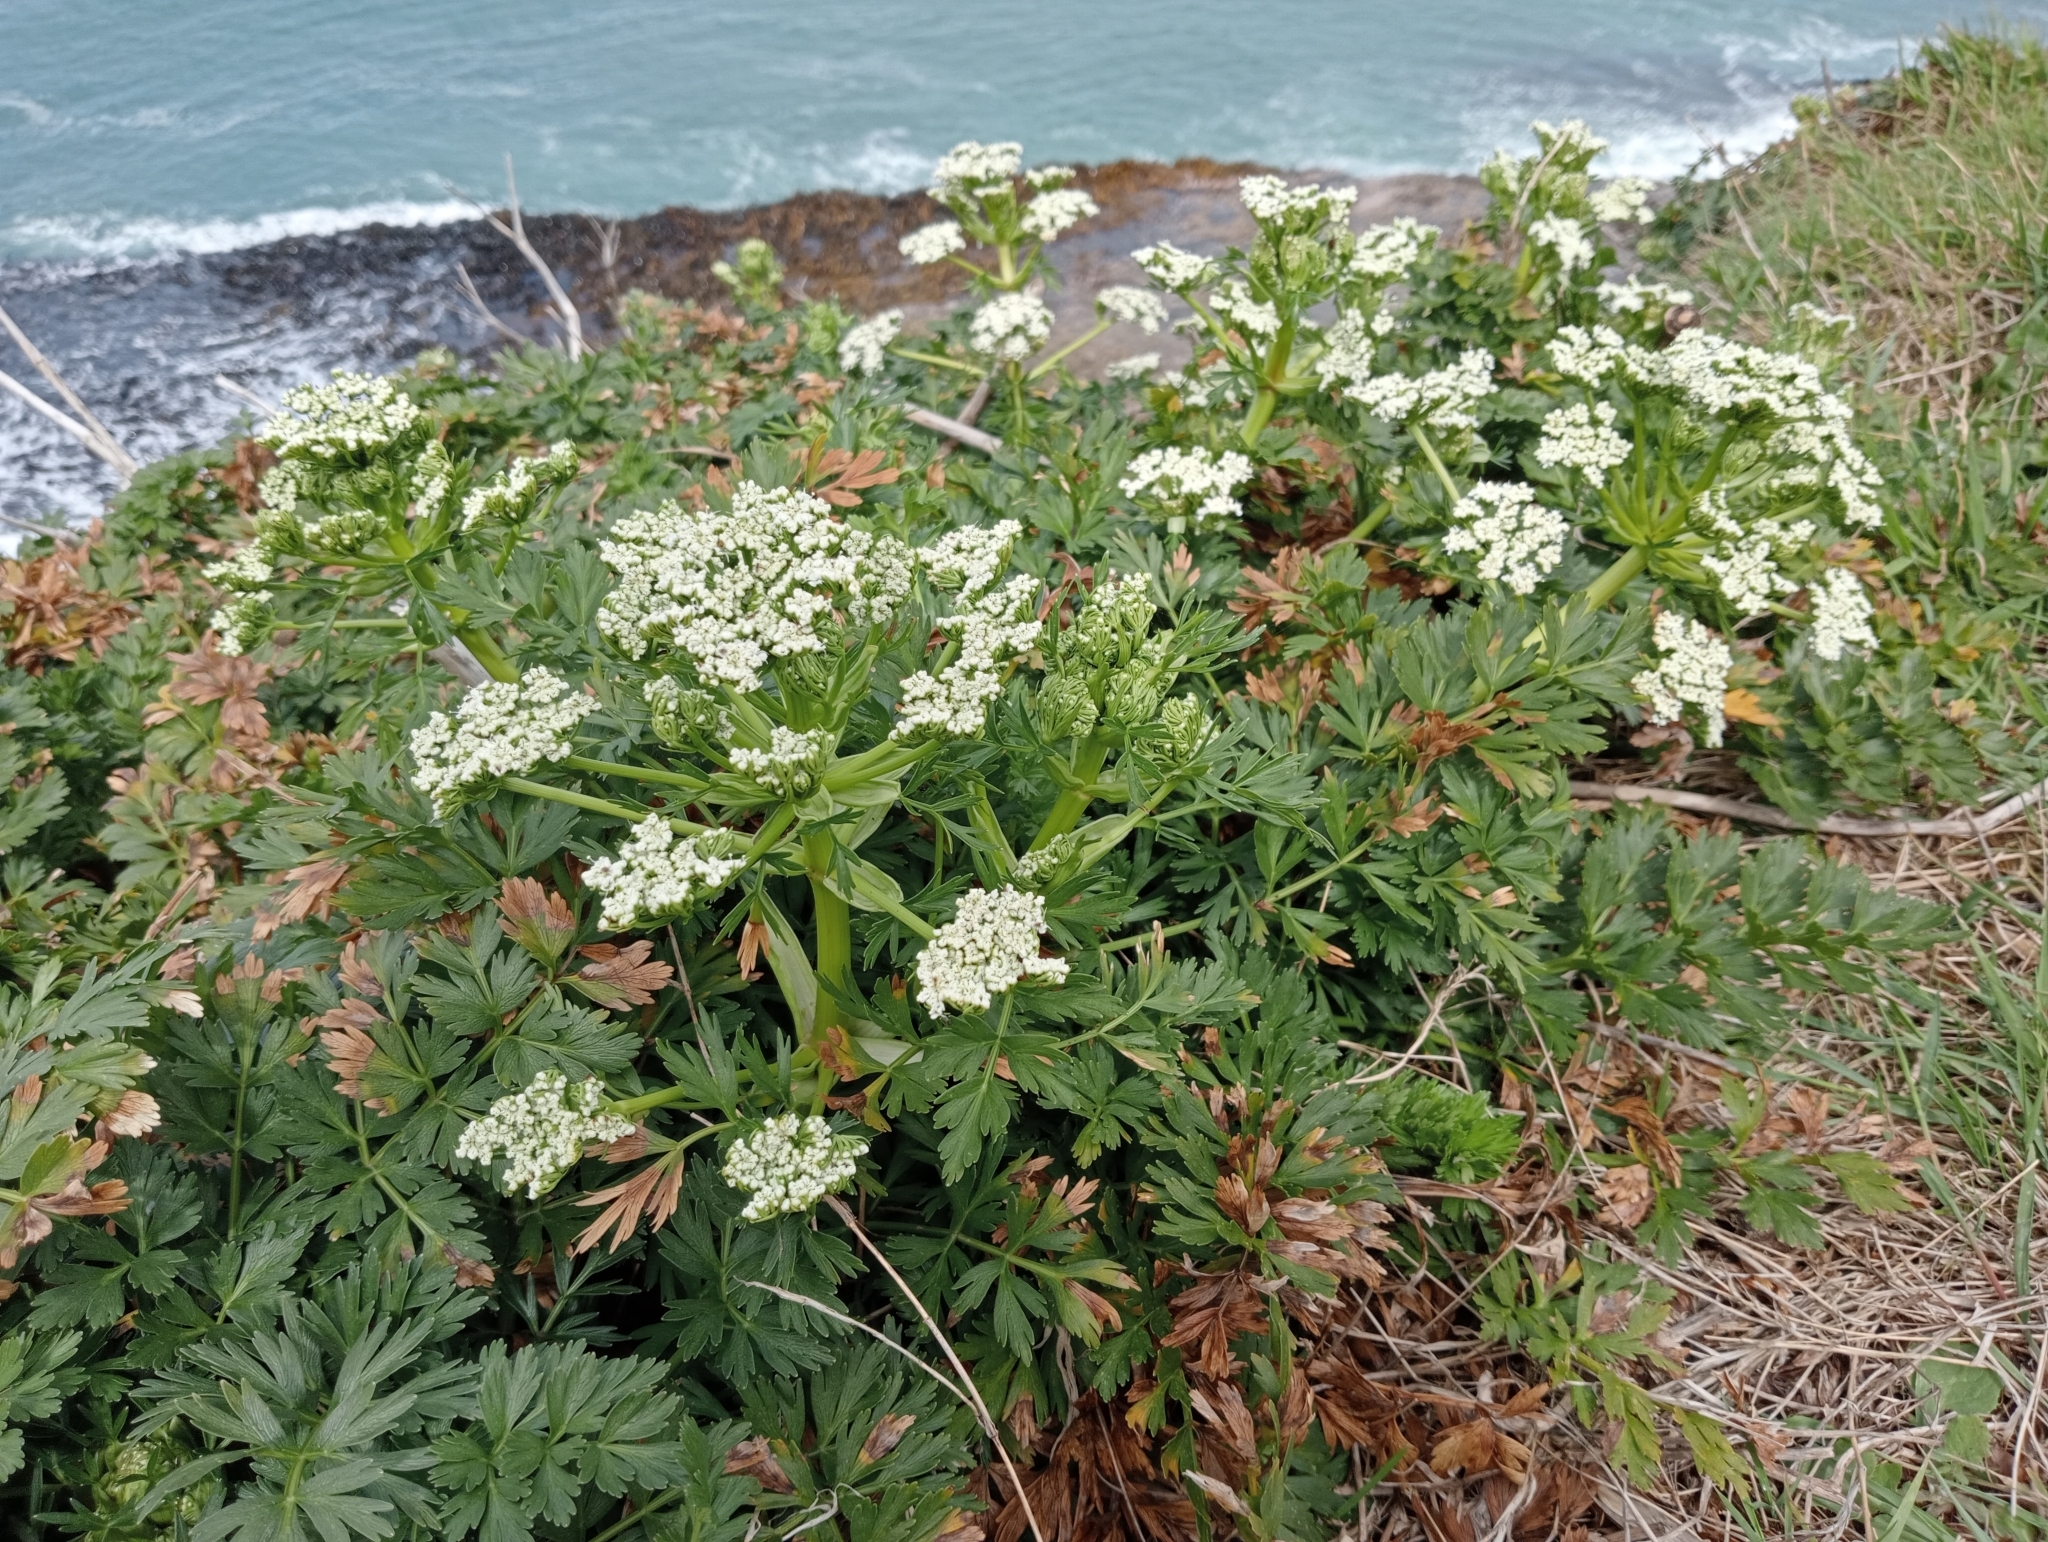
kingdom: Plantae
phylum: Tracheophyta
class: Magnoliopsida
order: Apiales
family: Apiaceae
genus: Anisotome
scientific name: Anisotome lyallii
